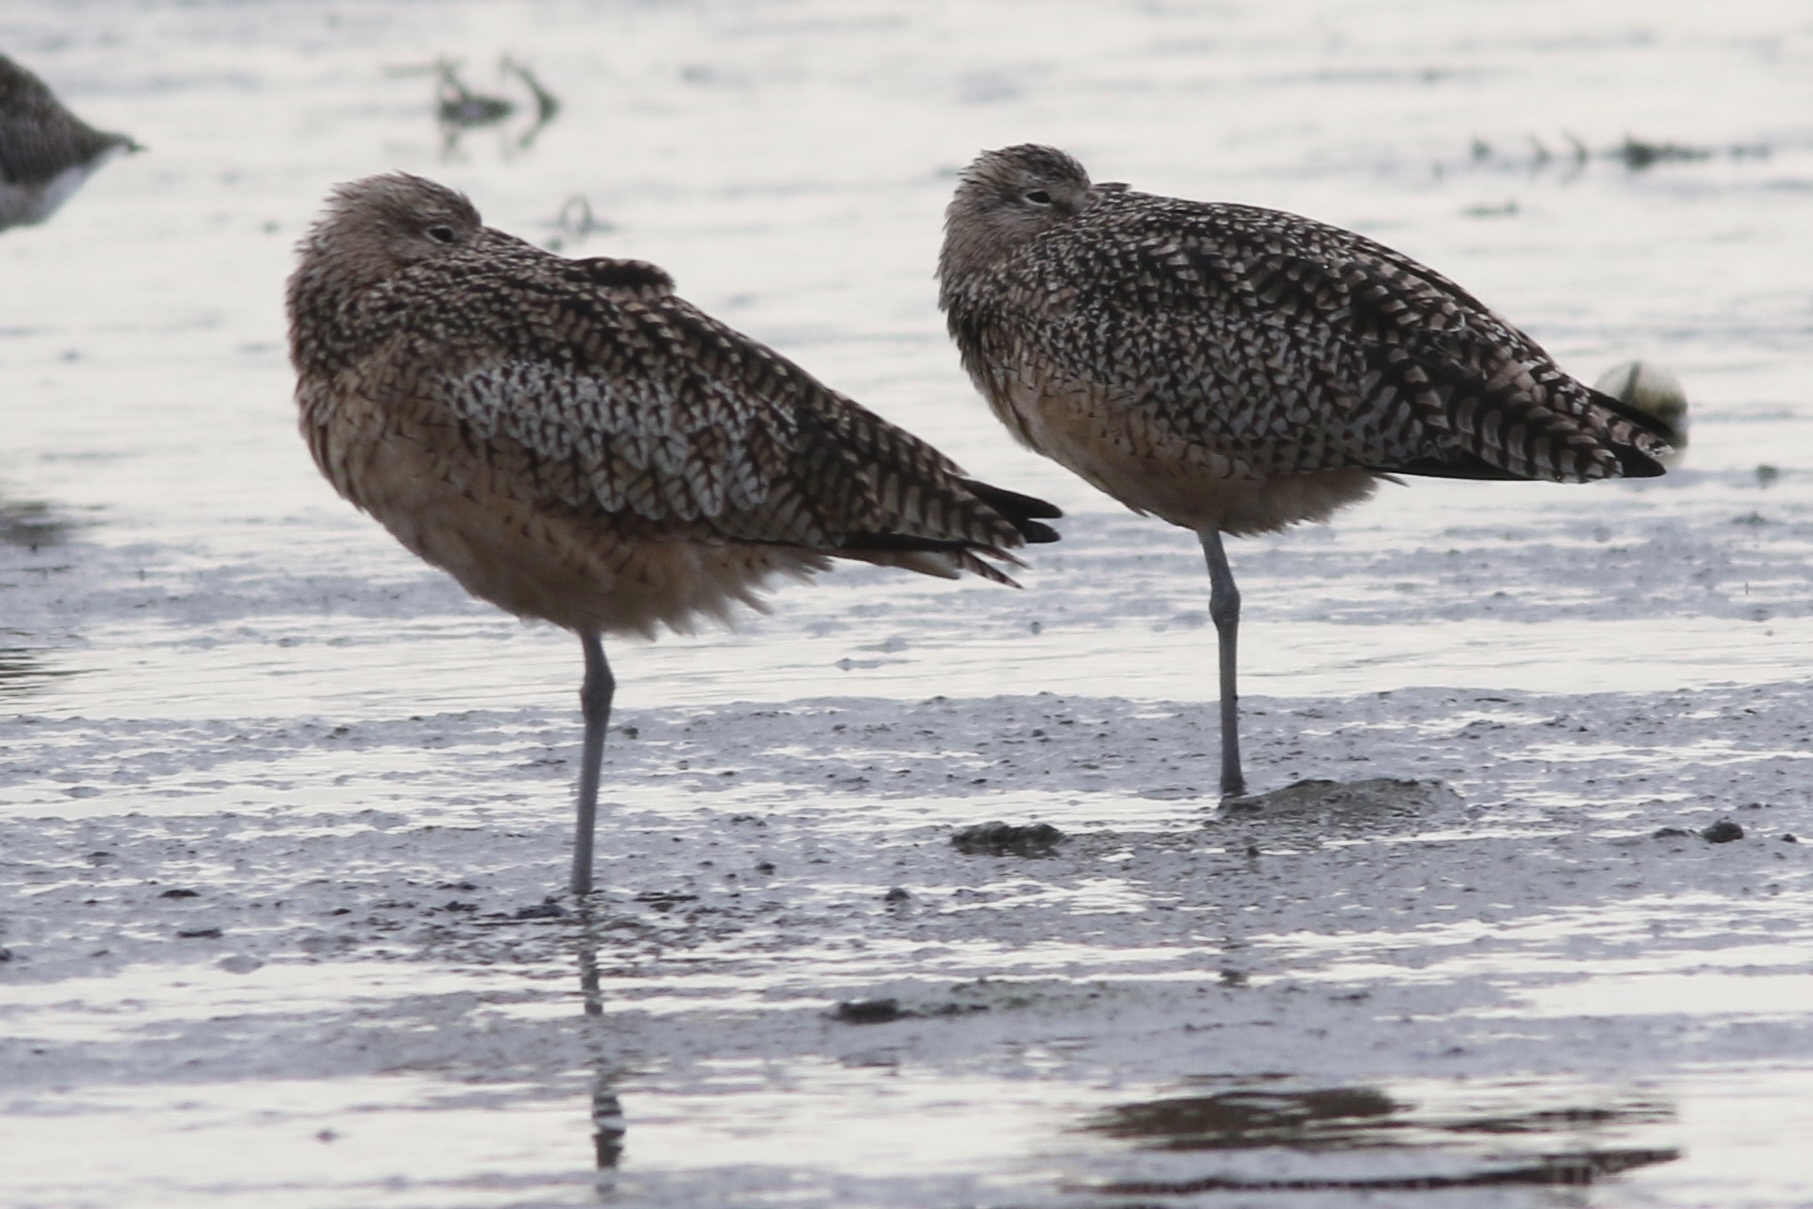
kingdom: Animalia
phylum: Chordata
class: Aves
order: Charadriiformes
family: Scolopacidae
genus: Numenius
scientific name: Numenius americanus
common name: Long-billed curlew
